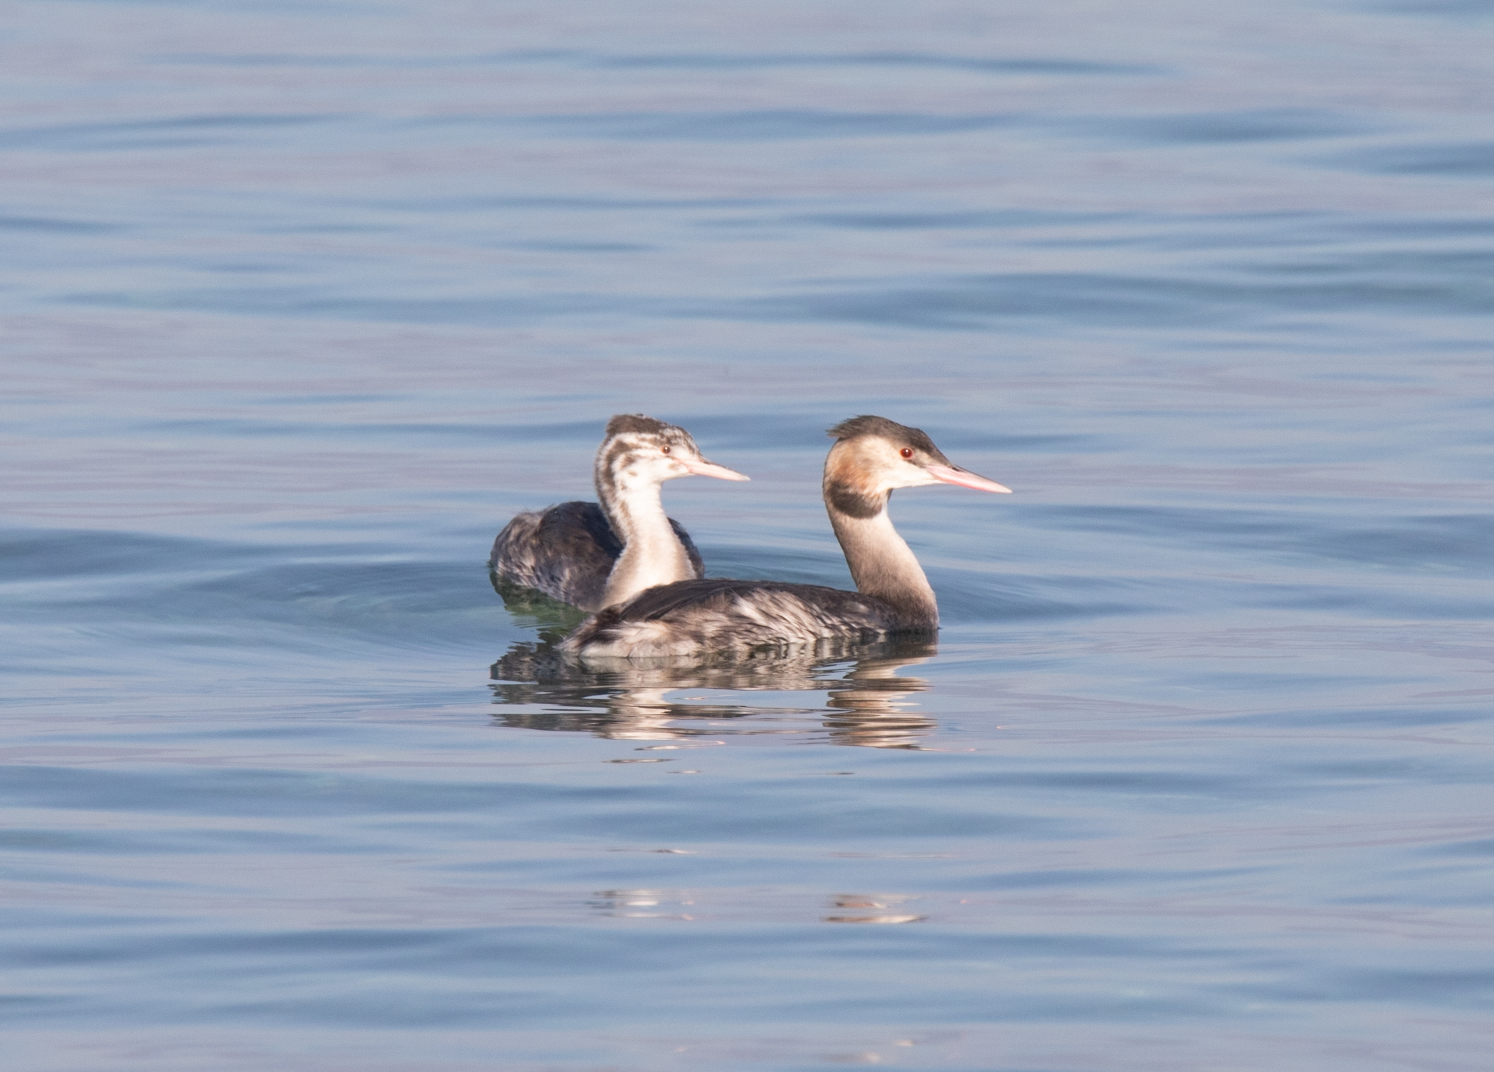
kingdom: Animalia
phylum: Chordata
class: Aves
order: Podicipediformes
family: Podicipedidae
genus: Podiceps
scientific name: Podiceps cristatus
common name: Great crested grebe
